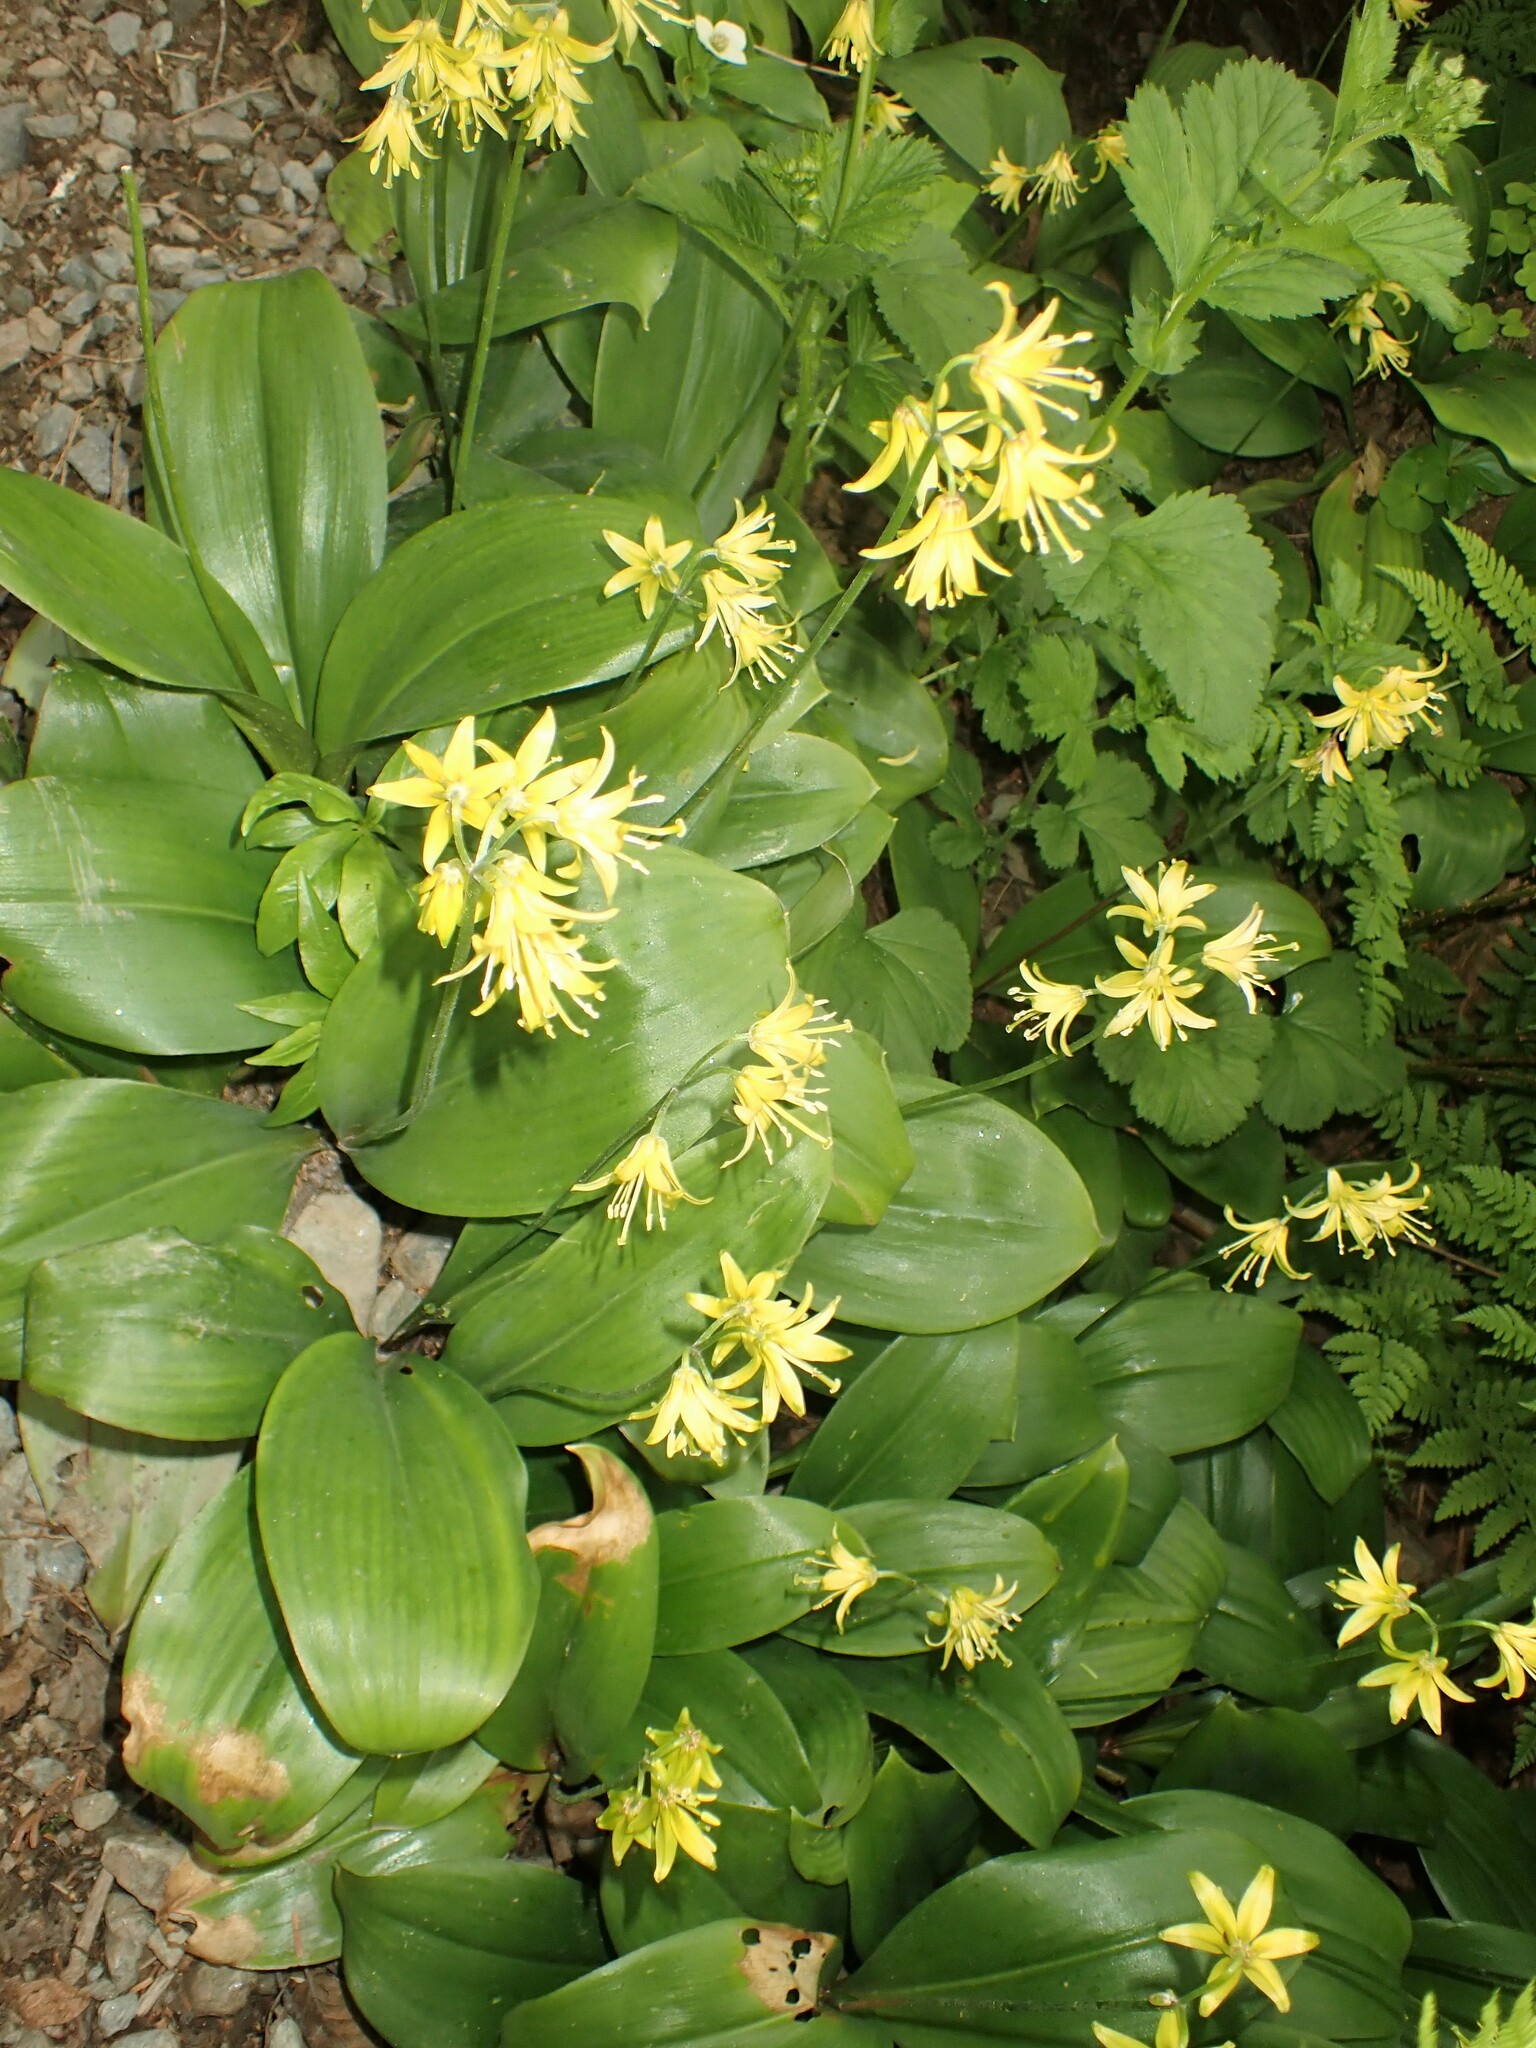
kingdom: Plantae
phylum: Tracheophyta
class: Liliopsida
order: Liliales
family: Liliaceae
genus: Clintonia
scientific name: Clintonia borealis
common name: Yellow clintonia
